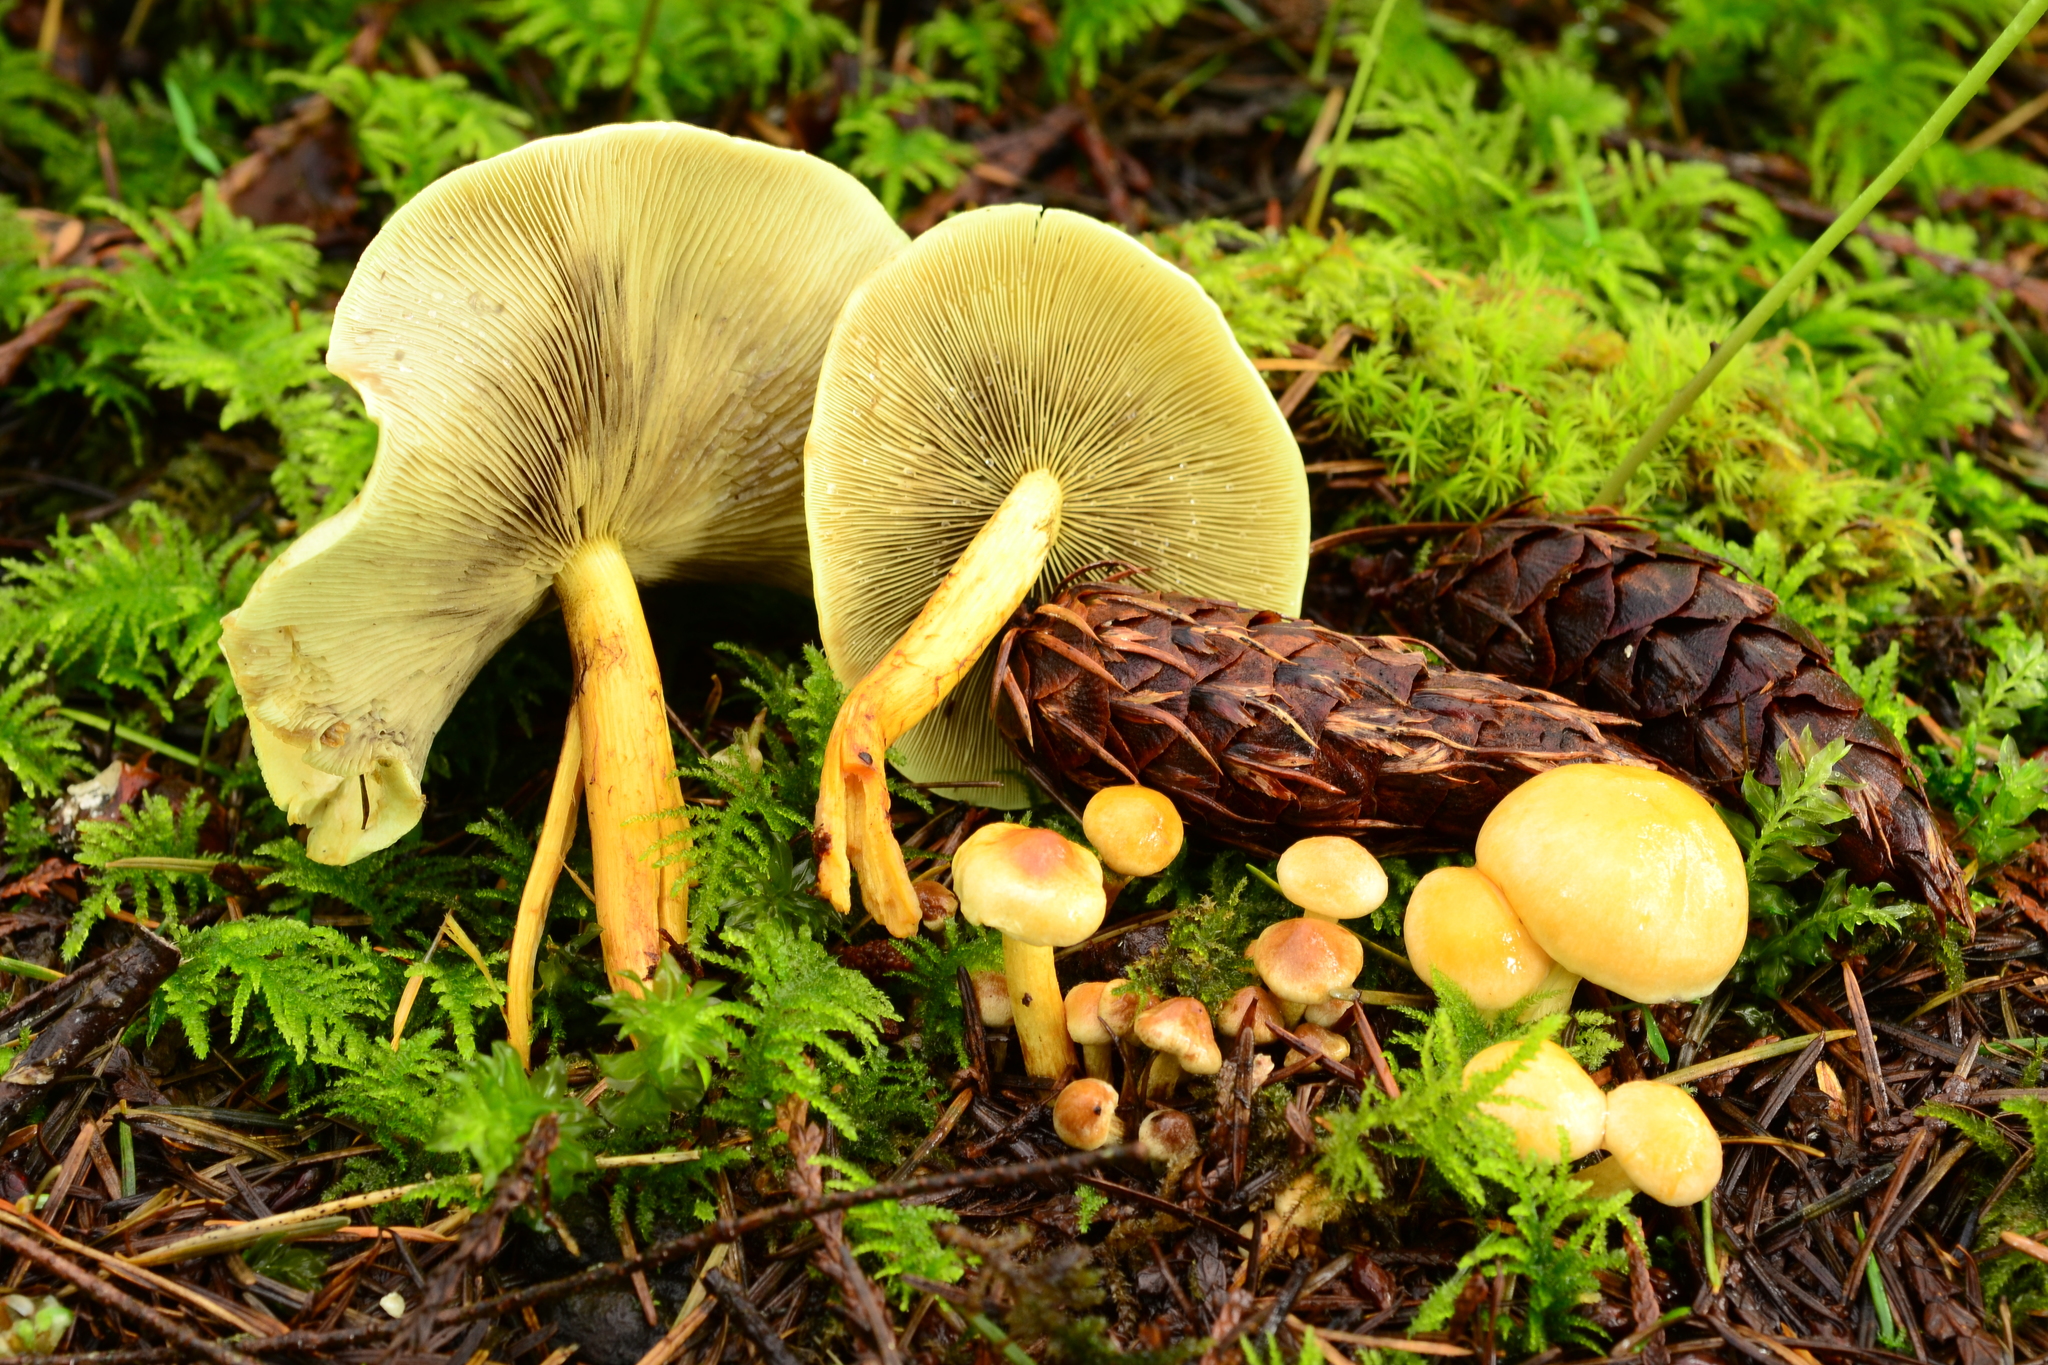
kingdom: Fungi
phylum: Basidiomycota
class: Agaricomycetes
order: Agaricales
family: Strophariaceae
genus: Hypholoma
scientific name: Hypholoma fasciculare
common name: Sulphur tuft
